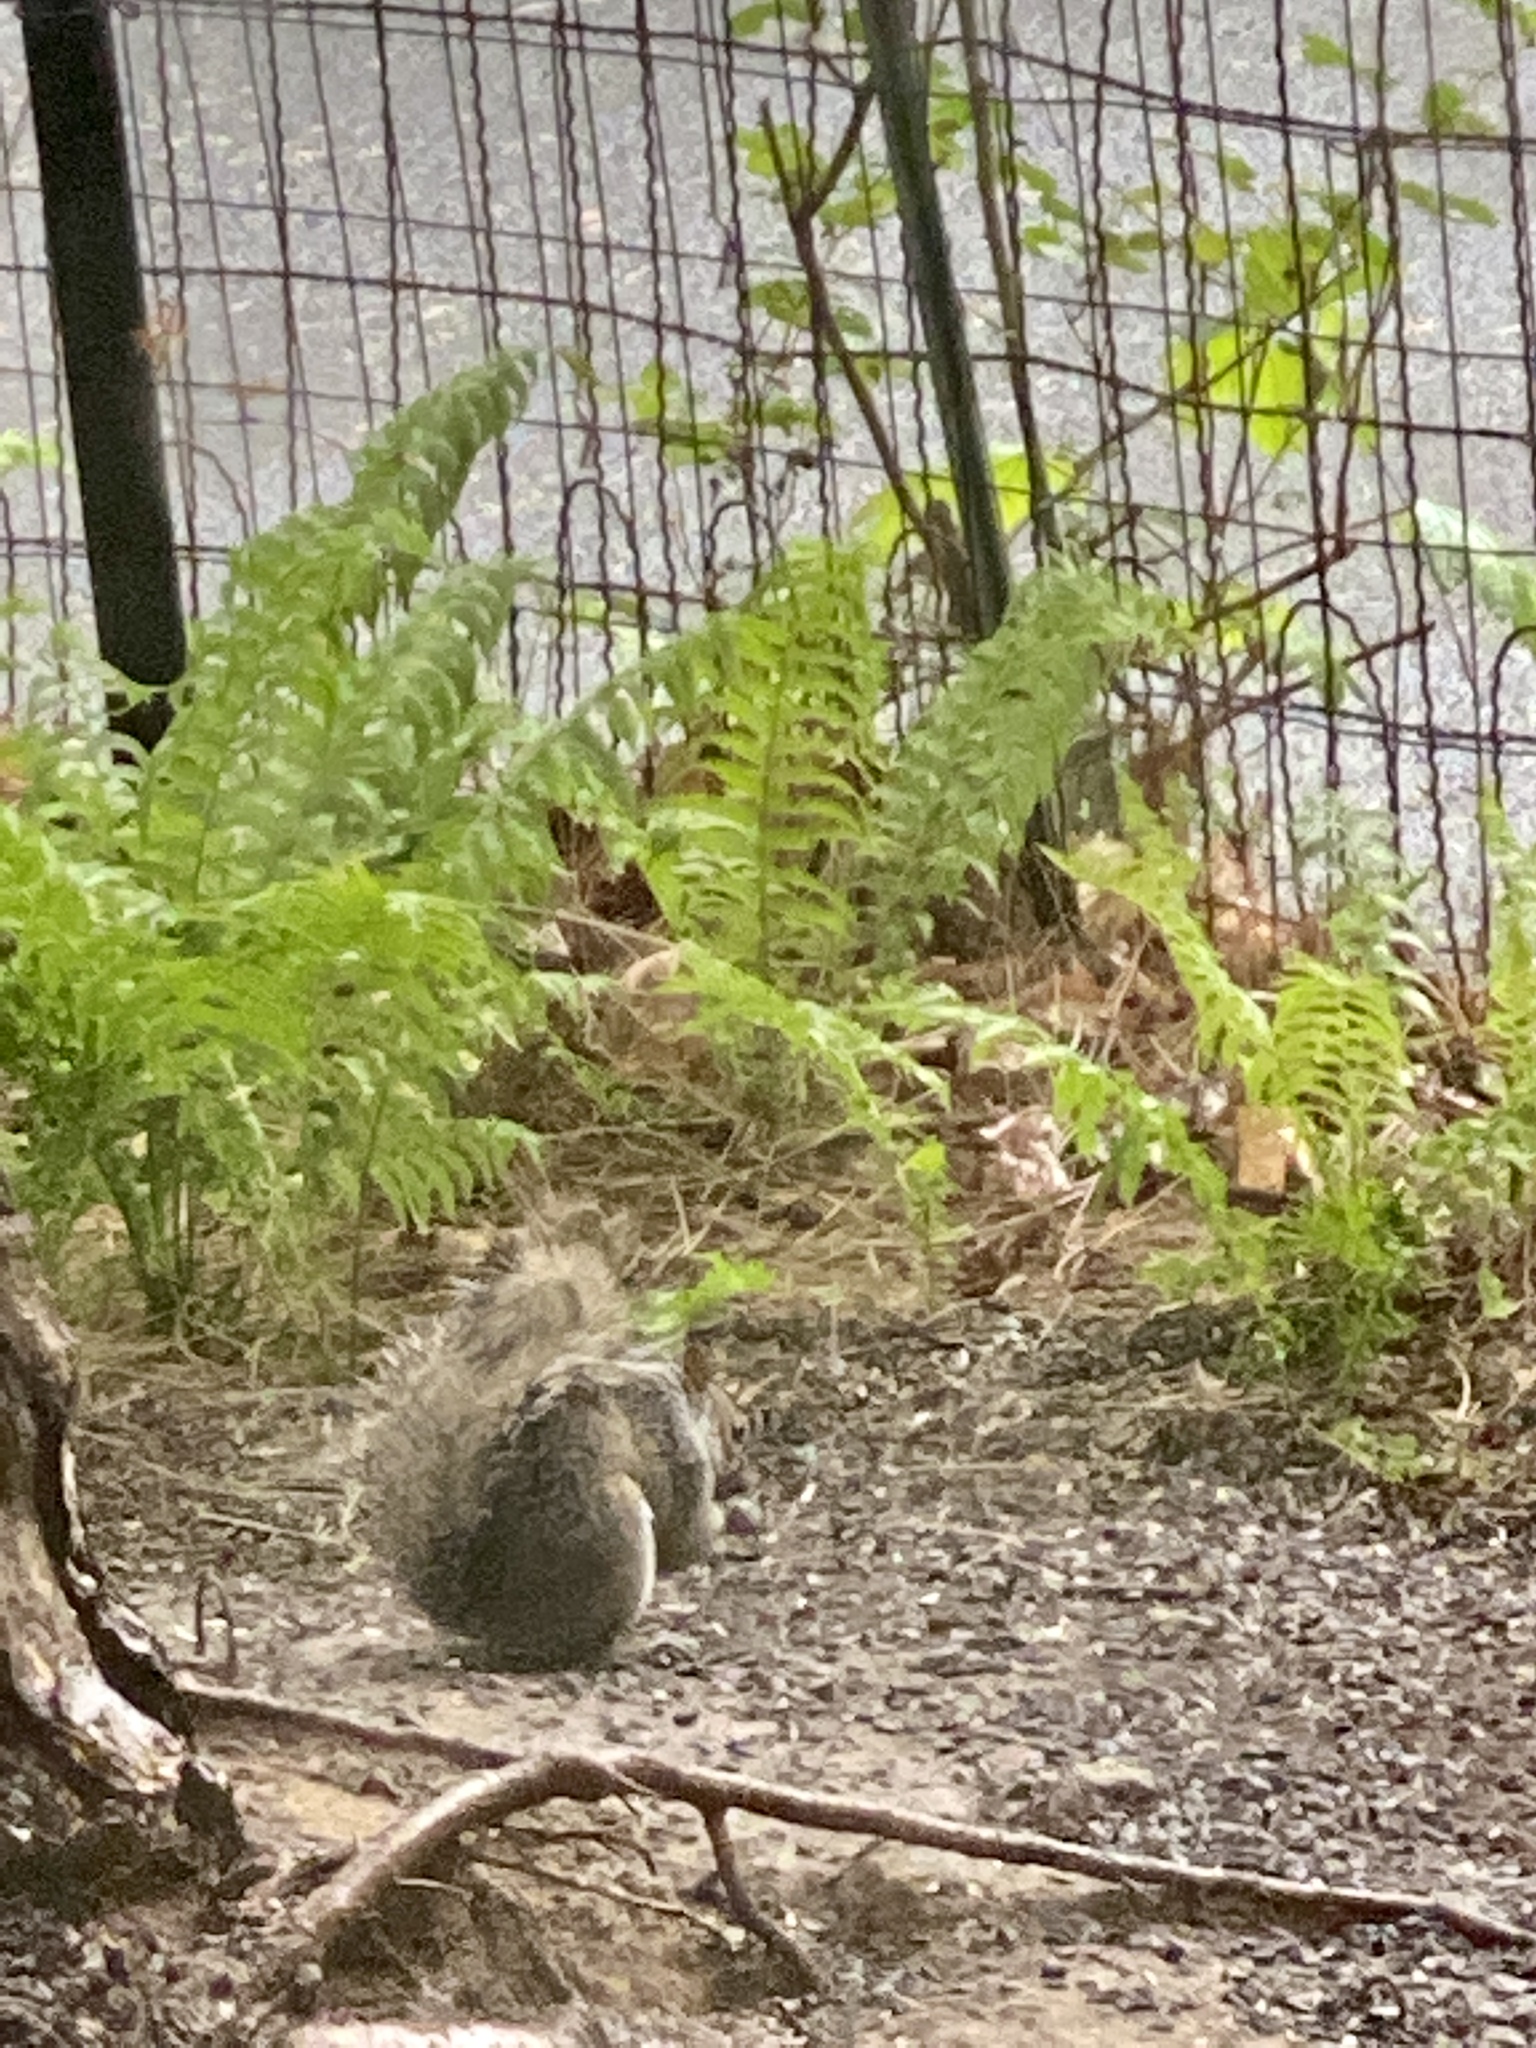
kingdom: Animalia
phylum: Chordata
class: Mammalia
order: Rodentia
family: Sciuridae
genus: Sciurus
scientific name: Sciurus carolinensis
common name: Eastern gray squirrel
